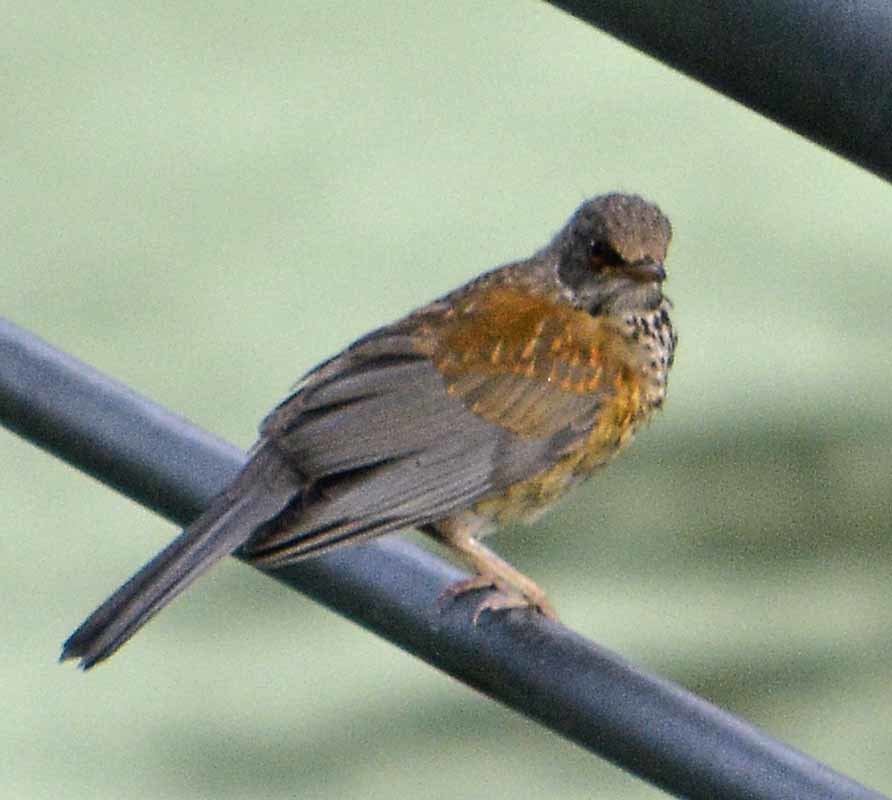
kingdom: Animalia
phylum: Chordata
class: Aves
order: Passeriformes
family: Turdidae
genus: Turdus
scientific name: Turdus rufopalliatus
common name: Rufous-backed robin
